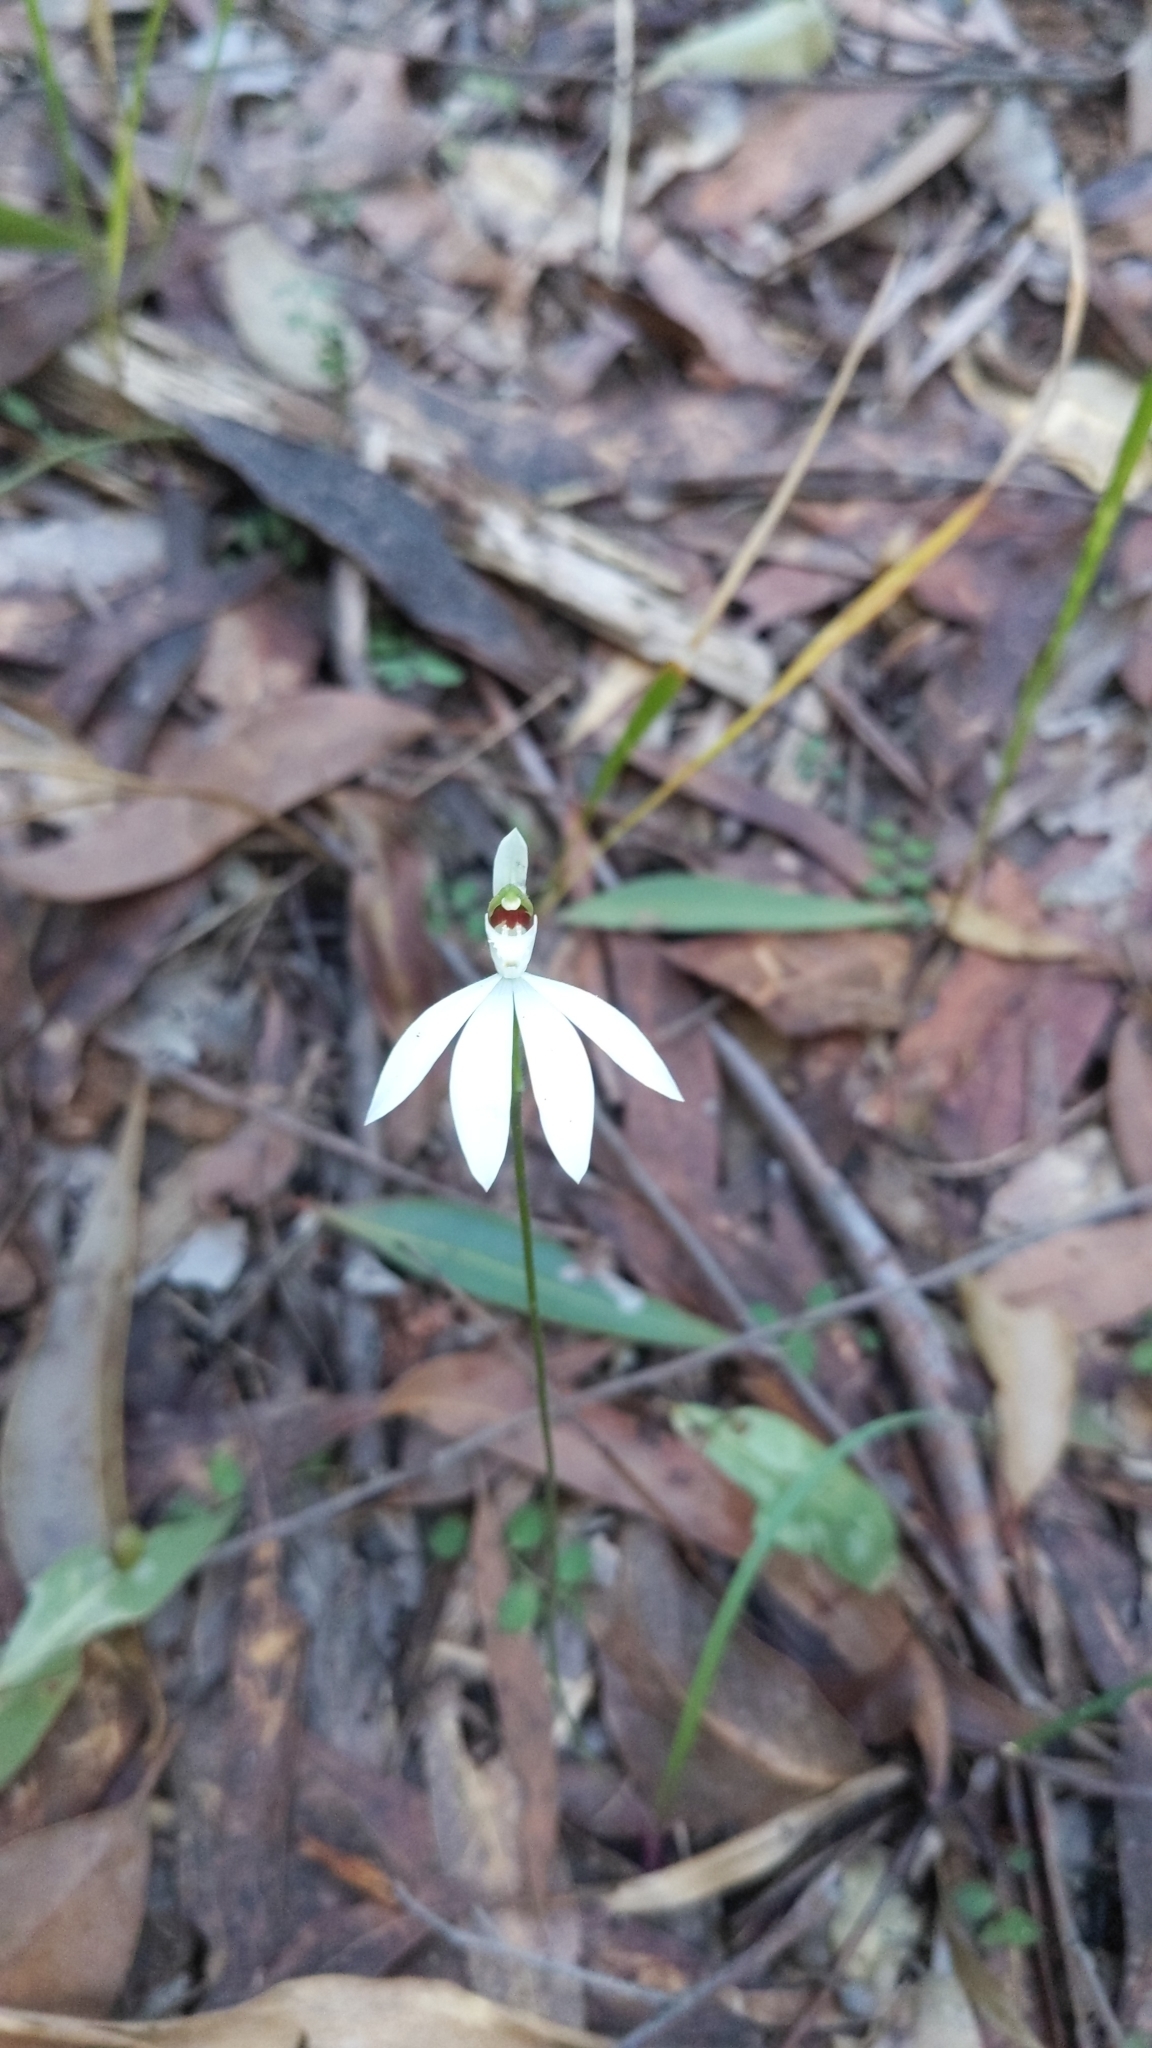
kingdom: Plantae
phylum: Tracheophyta
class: Liliopsida
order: Asparagales
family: Orchidaceae
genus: Caladenia
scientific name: Caladenia picta
